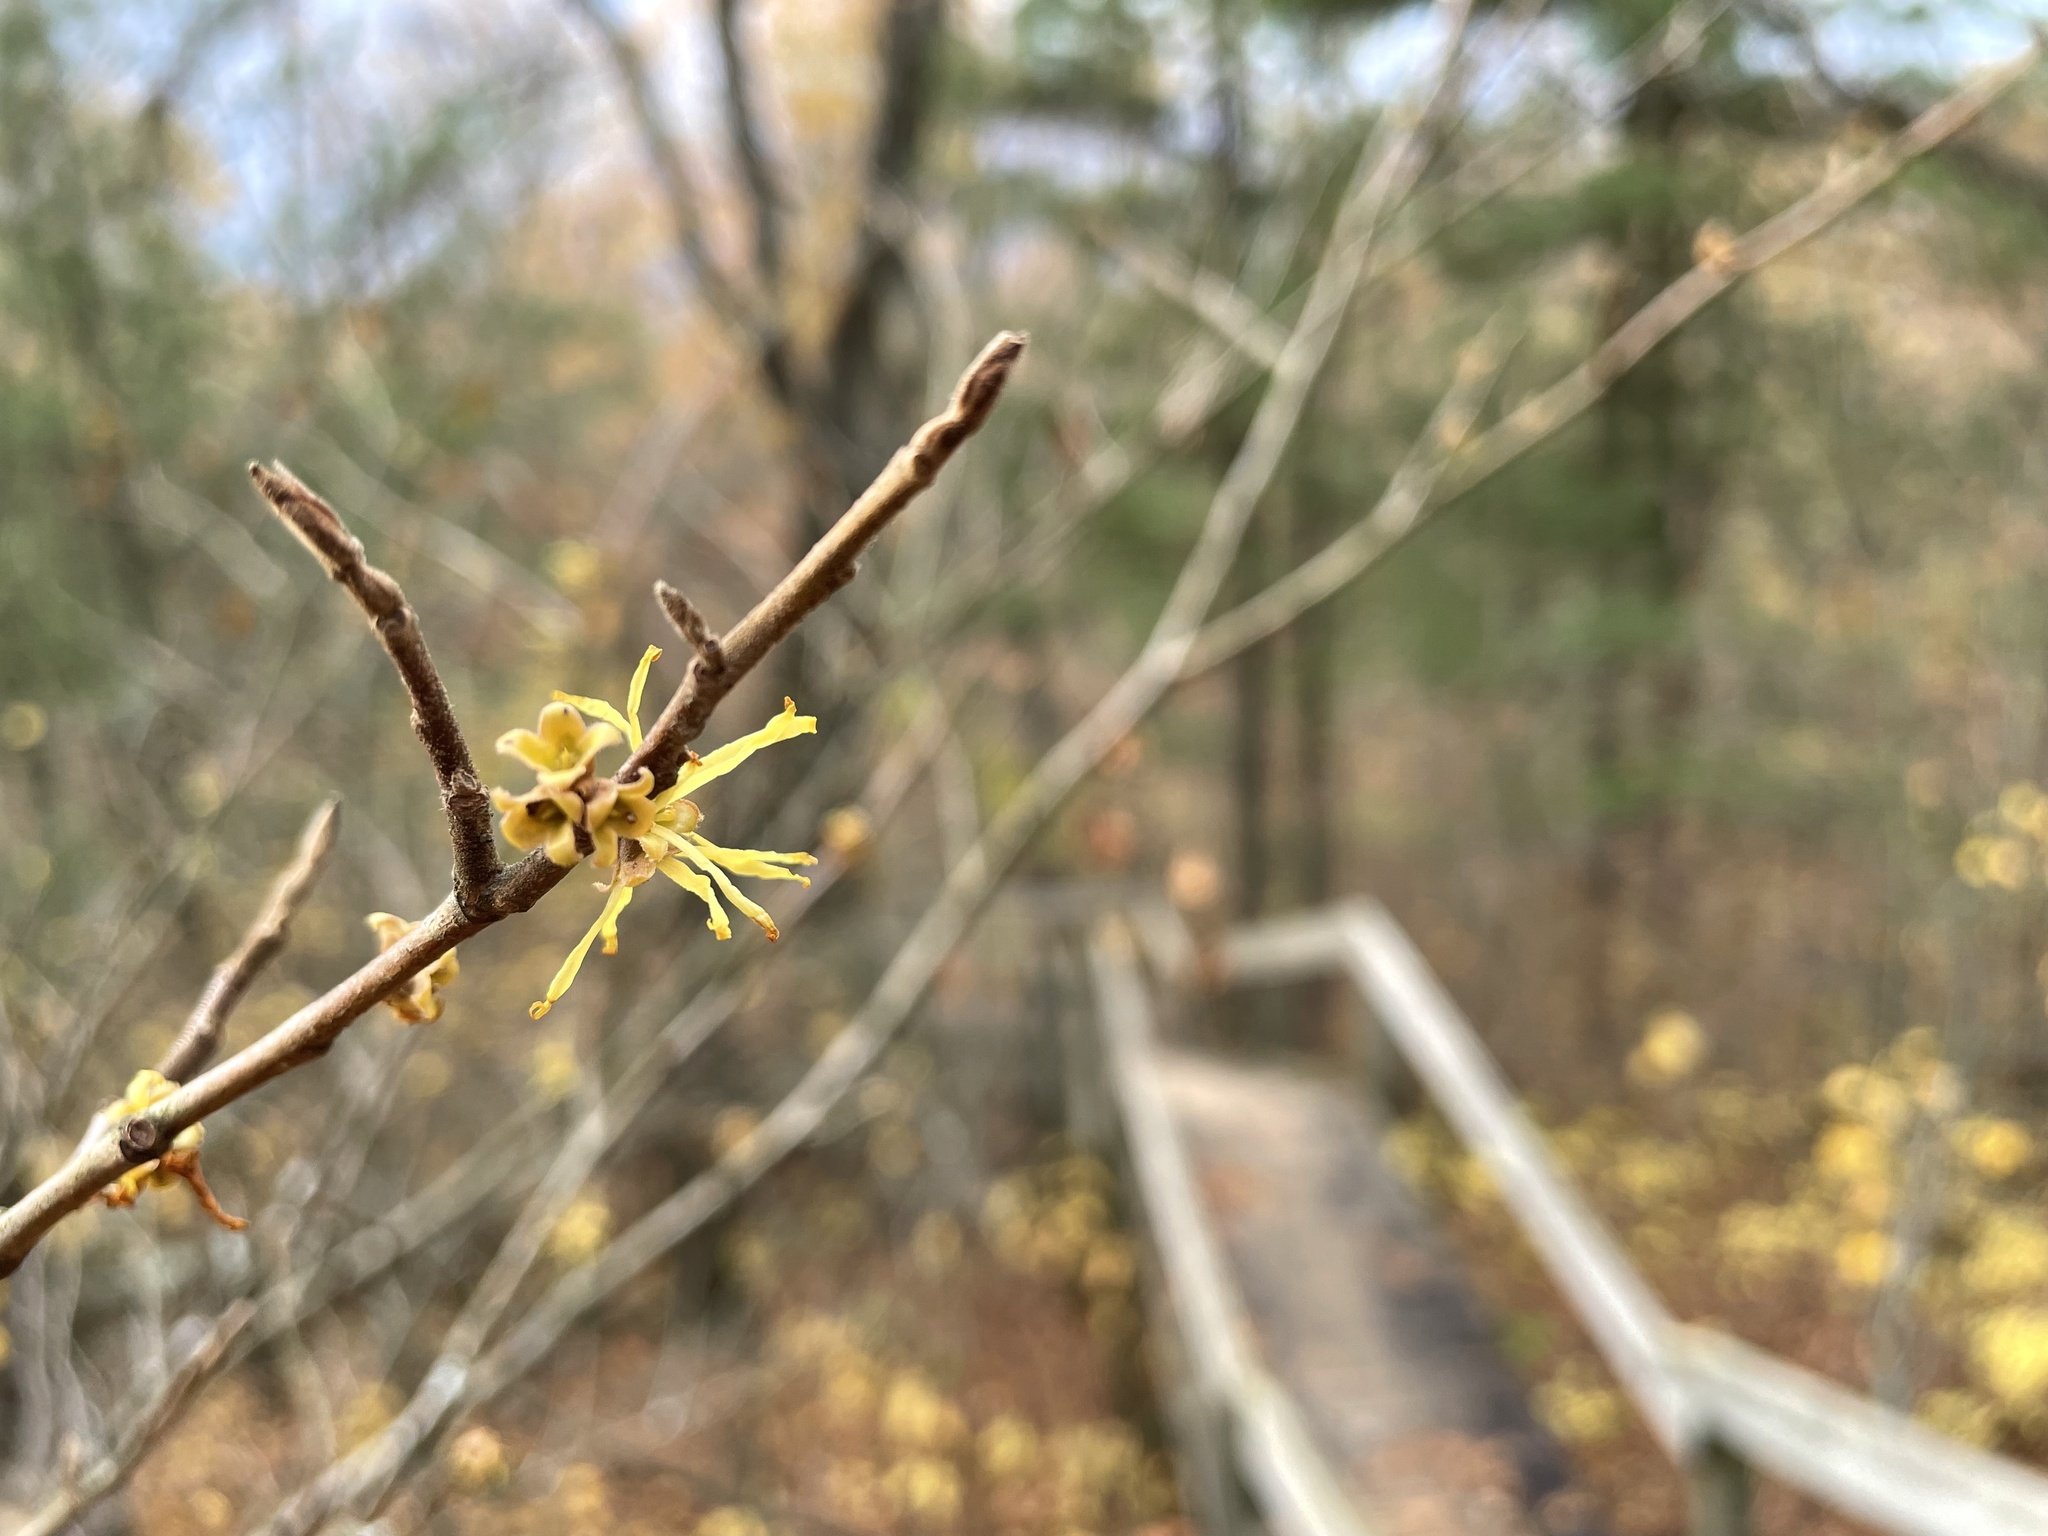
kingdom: Plantae
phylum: Tracheophyta
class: Magnoliopsida
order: Saxifragales
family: Hamamelidaceae
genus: Hamamelis
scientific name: Hamamelis virginiana
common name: Witch-hazel
